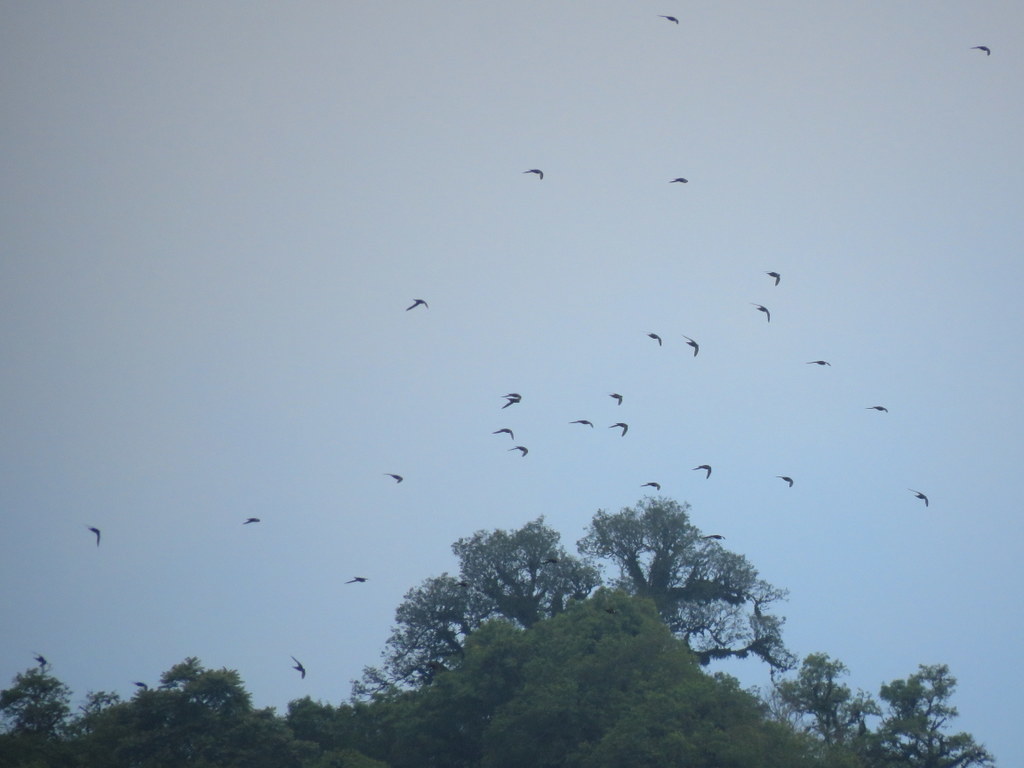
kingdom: Animalia
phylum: Chordata
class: Aves
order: Apodiformes
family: Apodidae
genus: Streptoprocne
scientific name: Streptoprocne zonaris
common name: White-collared swift
